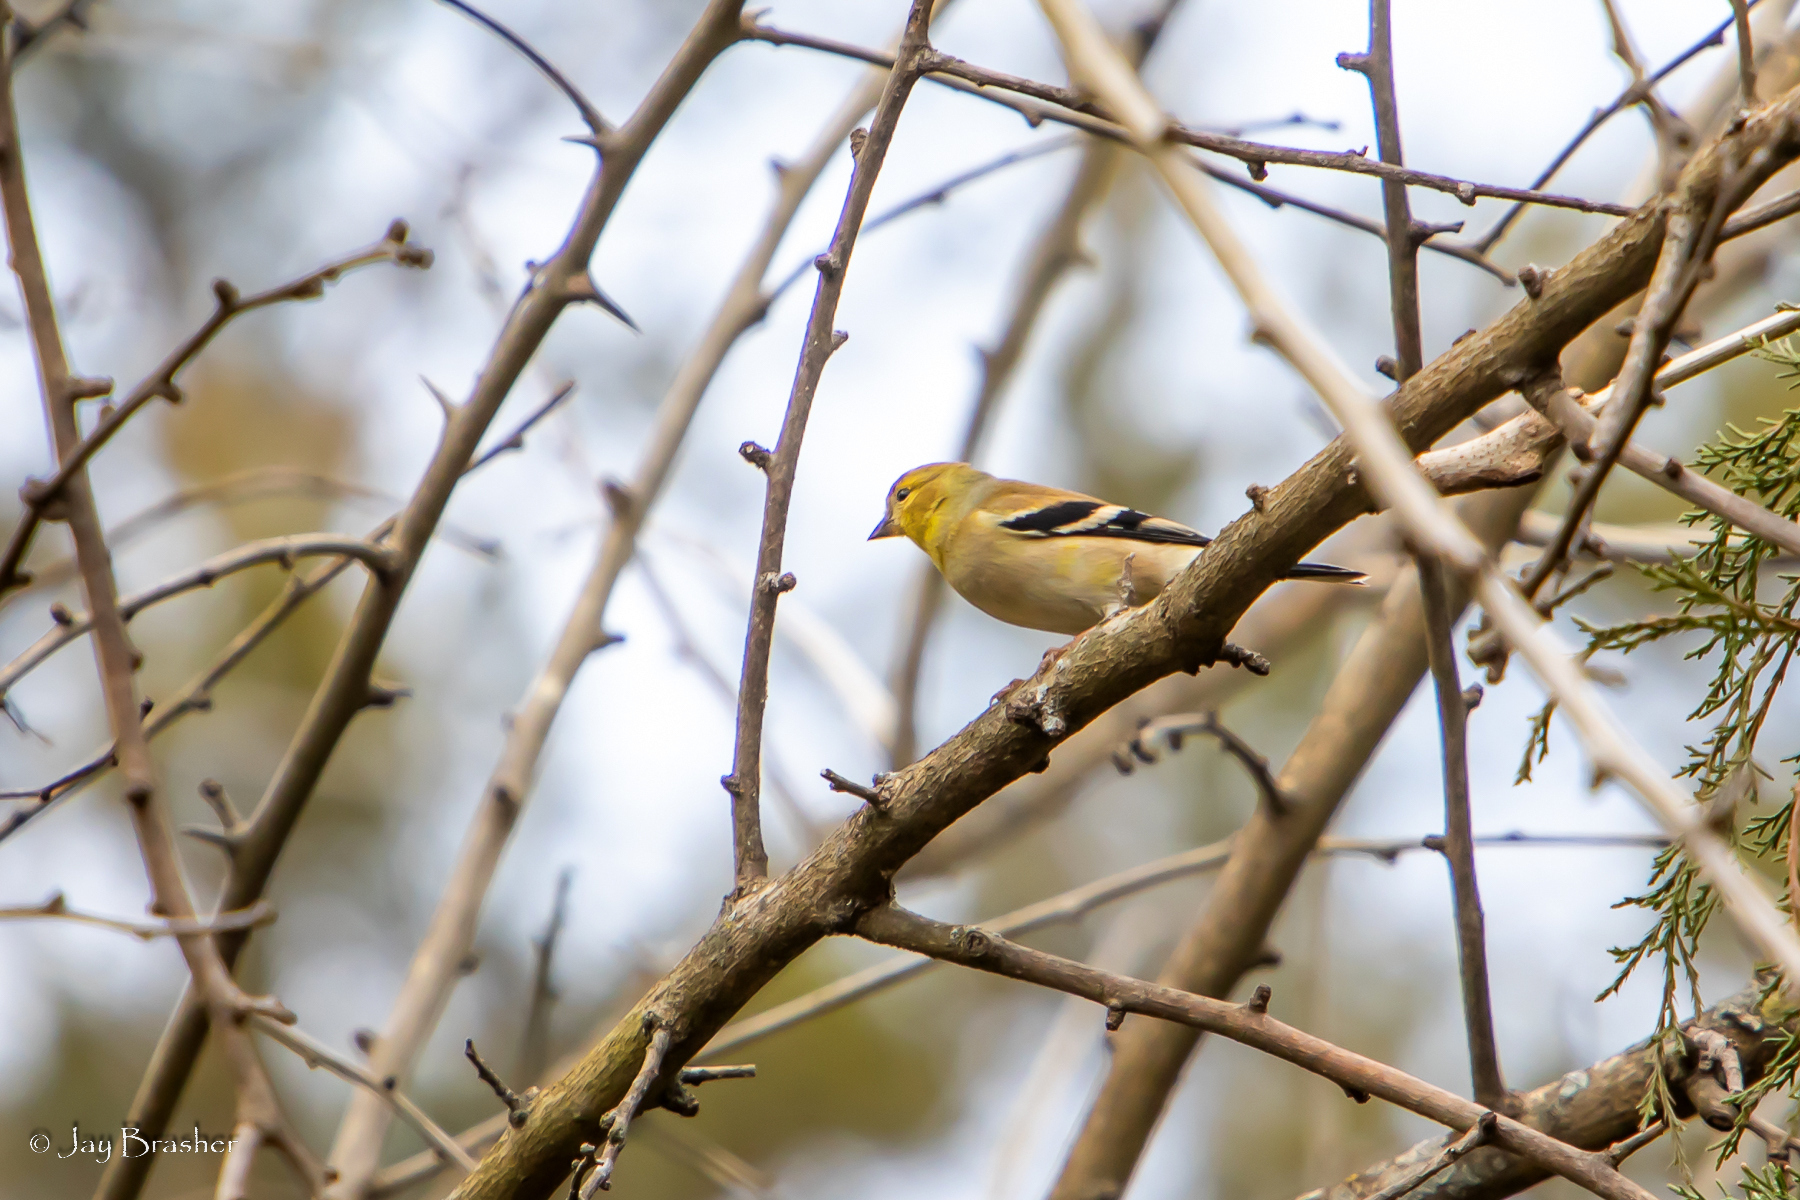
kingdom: Animalia
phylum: Chordata
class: Aves
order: Passeriformes
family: Fringillidae
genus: Spinus
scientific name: Spinus tristis
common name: American goldfinch
